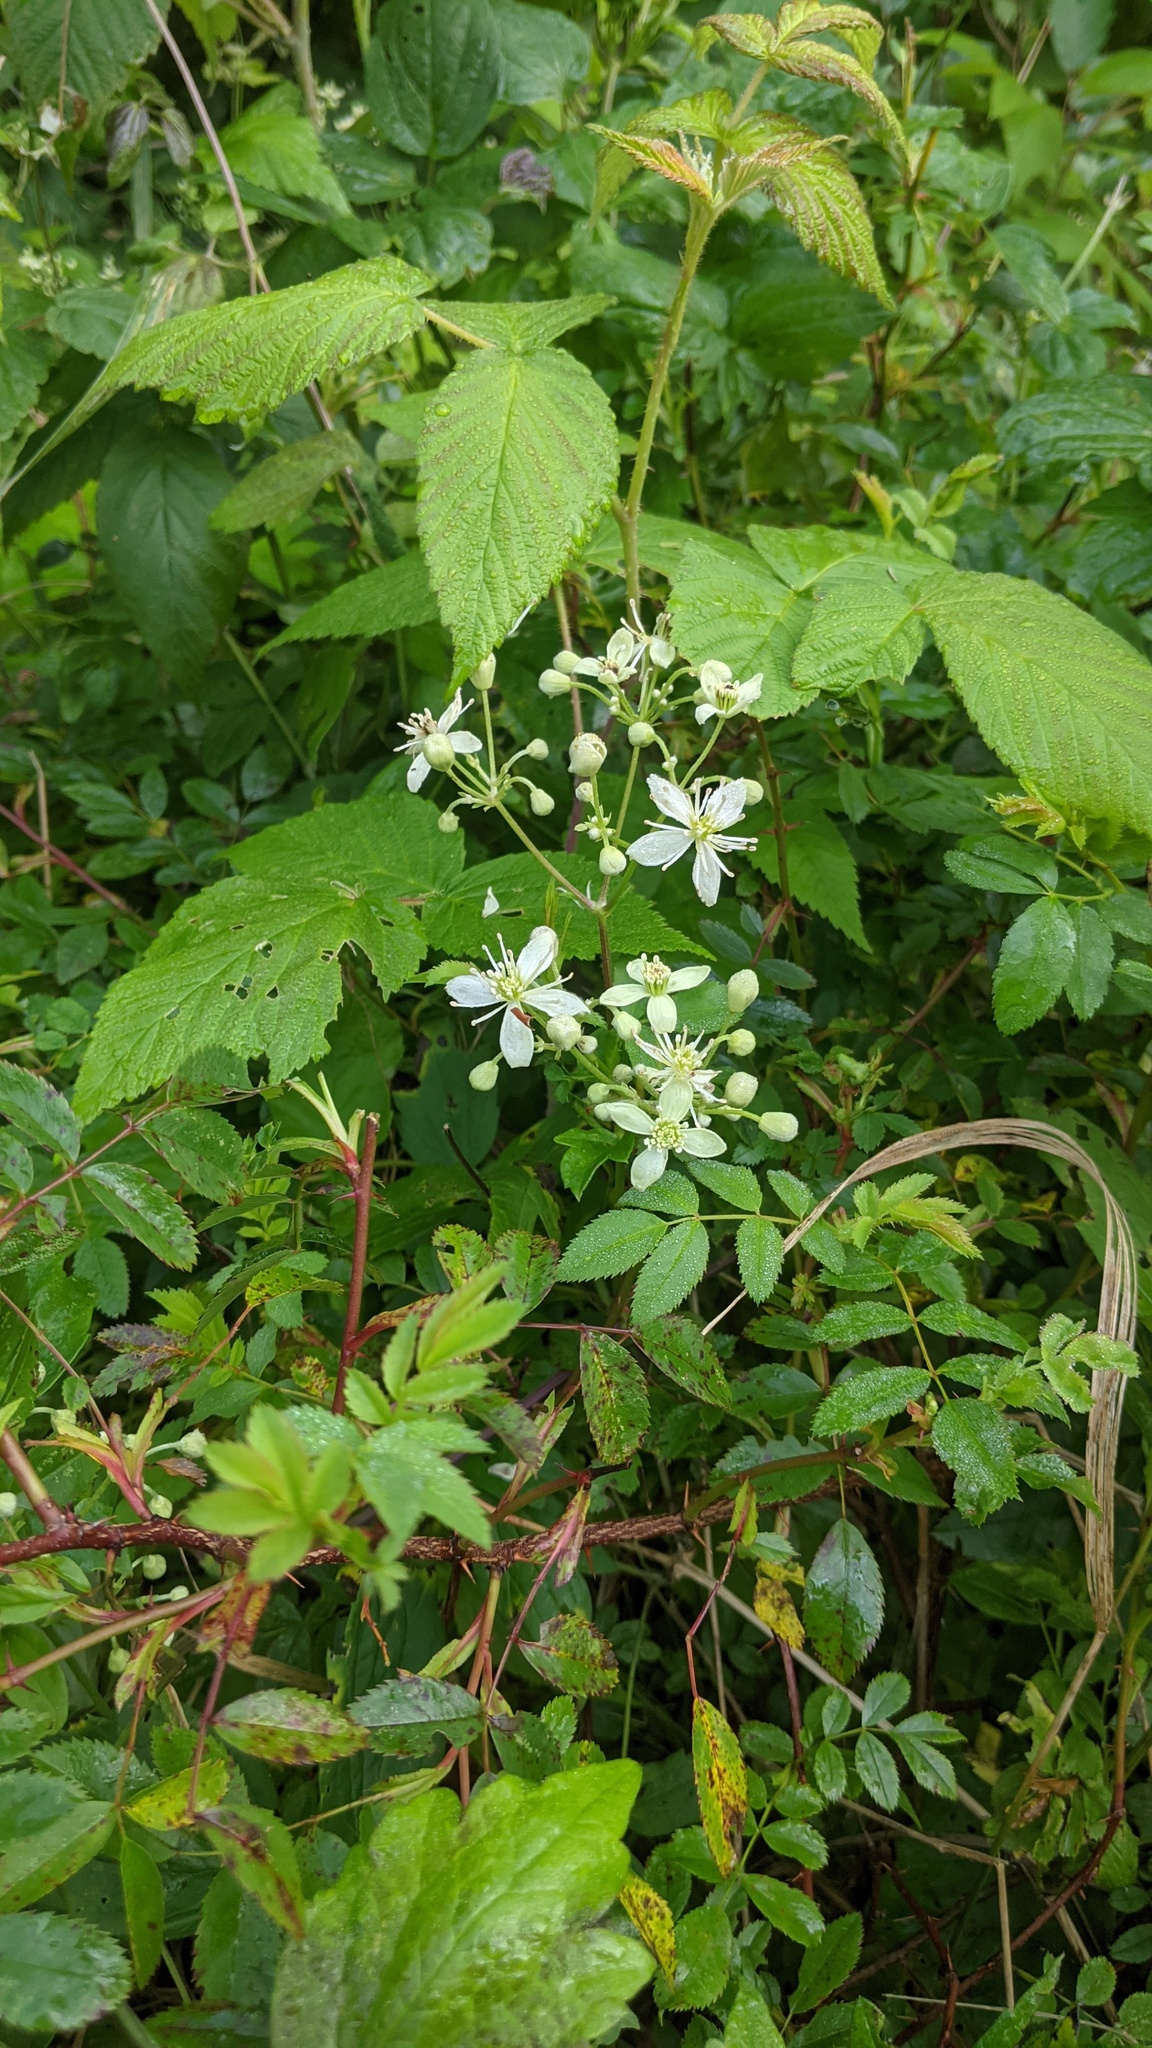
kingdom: Plantae
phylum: Tracheophyta
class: Magnoliopsida
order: Ranunculales
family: Ranunculaceae
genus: Clematis
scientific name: Clematis virginiana
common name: Virgin's-bower
